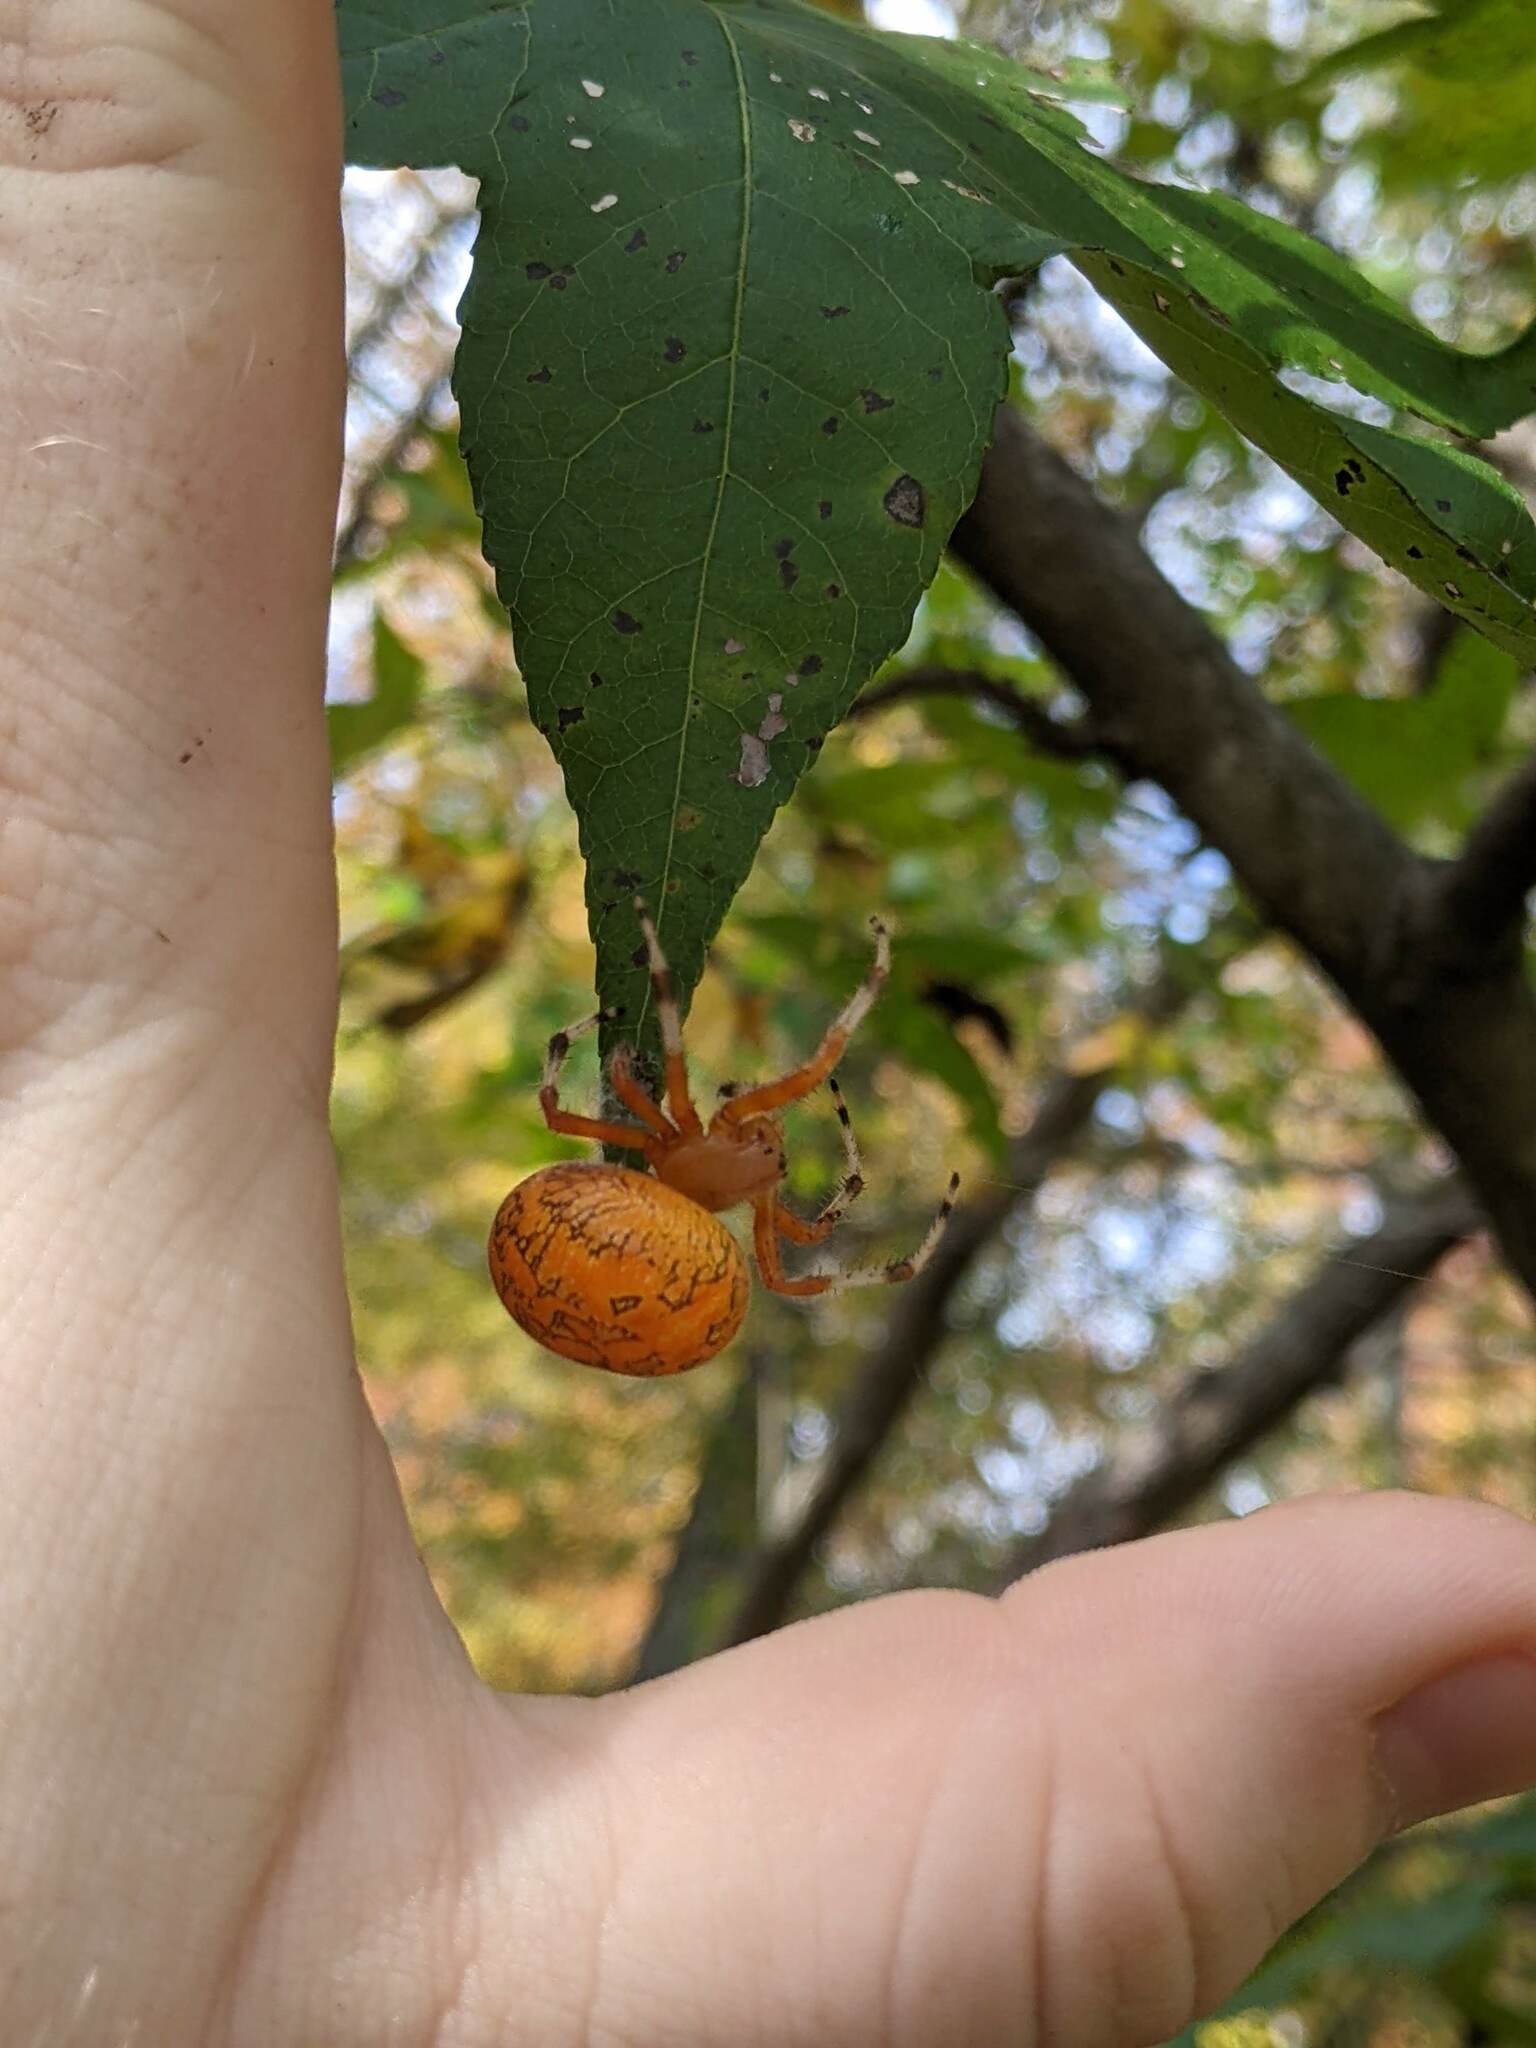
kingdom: Animalia
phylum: Arthropoda
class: Arachnida
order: Araneae
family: Araneidae
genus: Araneus
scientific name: Araneus marmoreus
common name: Marbled orbweaver
